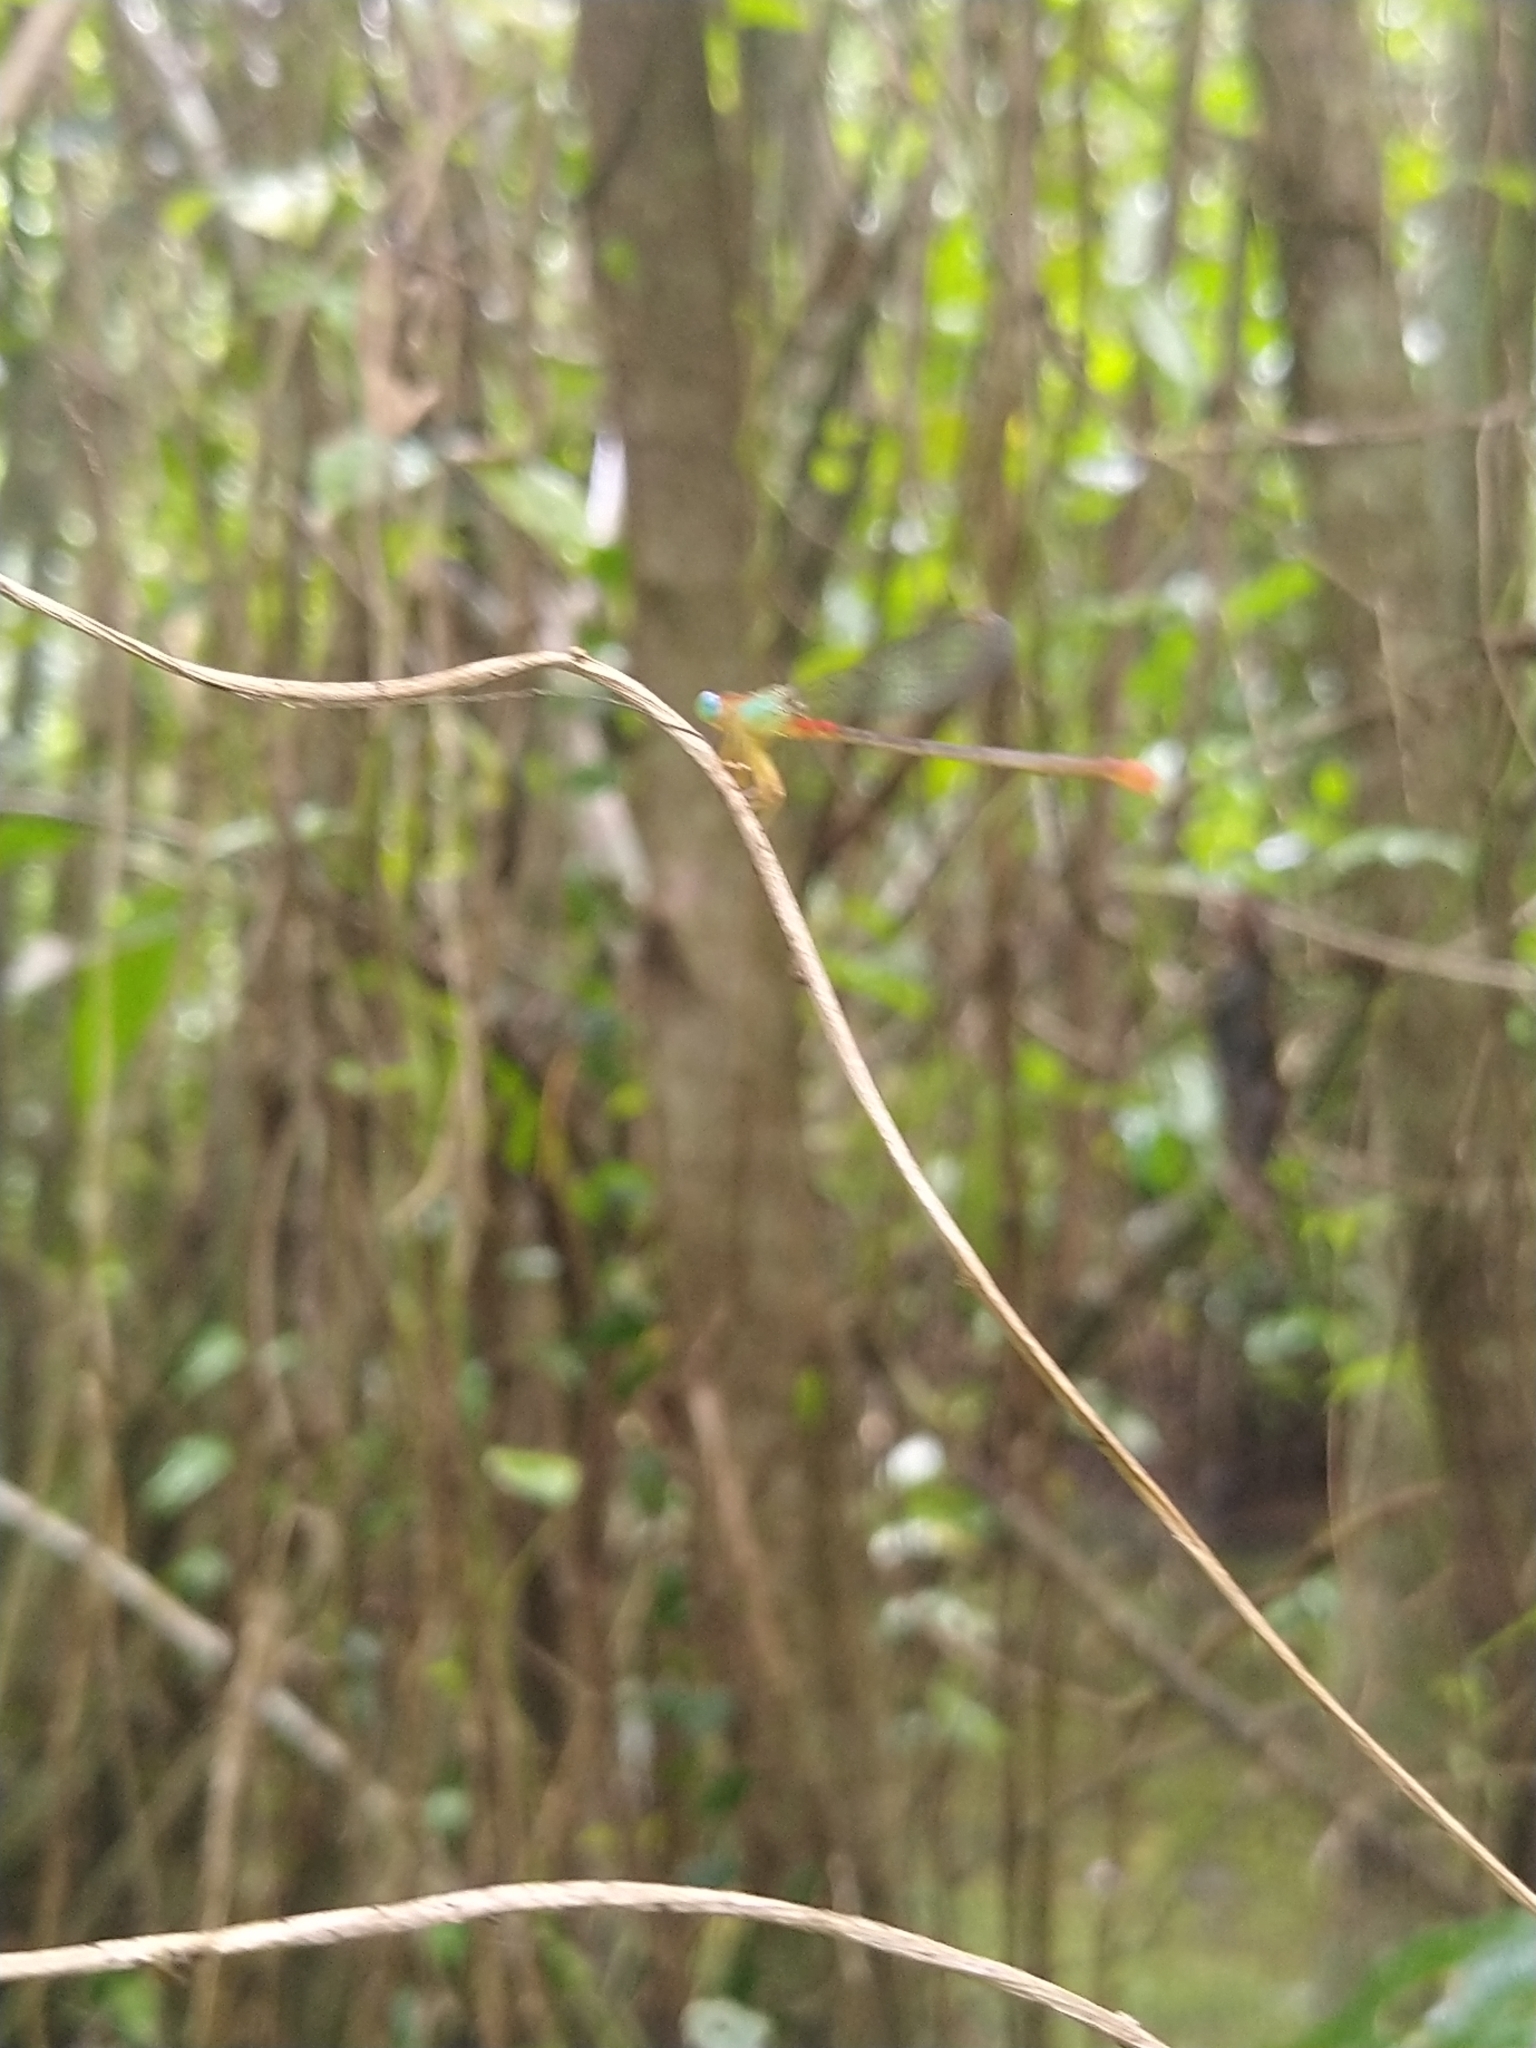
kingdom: Animalia
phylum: Arthropoda
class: Insecta
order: Odonata
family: Coenagrionidae
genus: Ceriagrion
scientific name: Ceriagrion cerinorubellum
